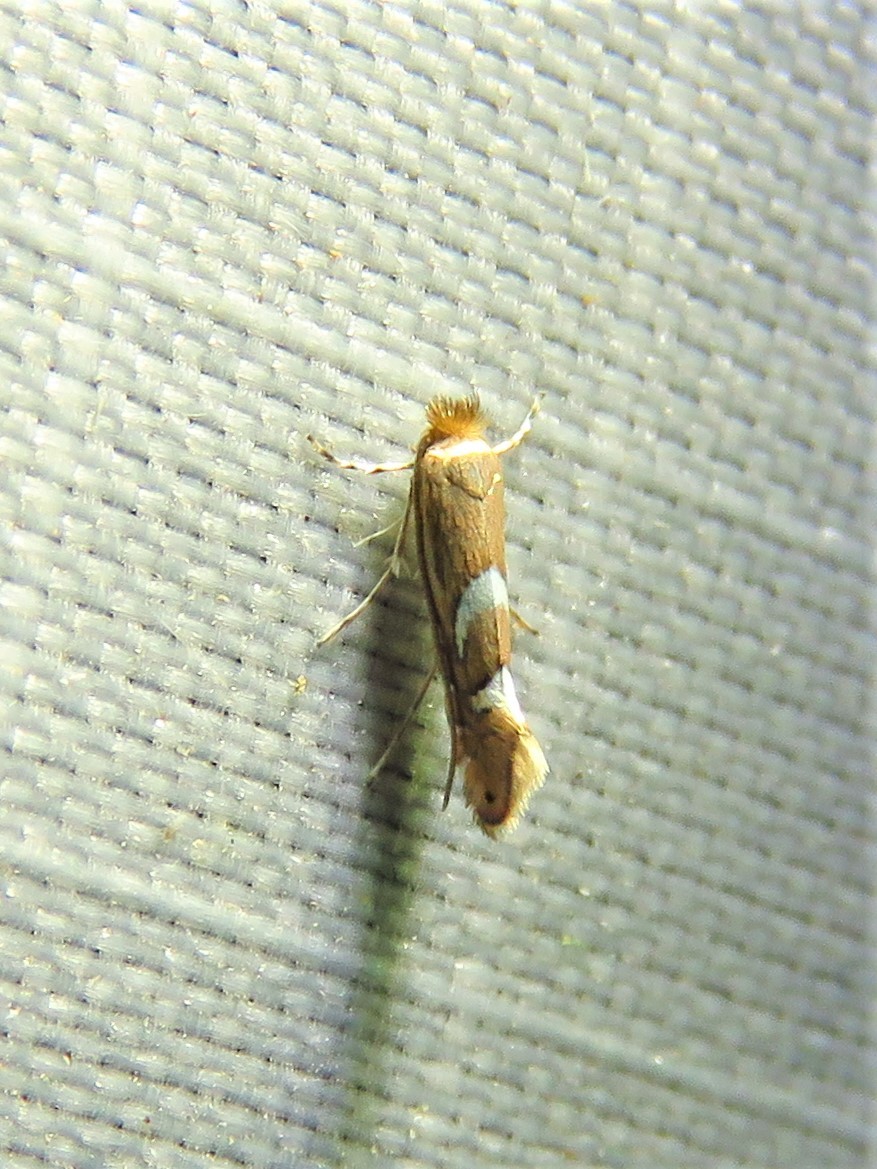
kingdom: Animalia
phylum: Arthropoda
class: Insecta
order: Lepidoptera
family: Gracillariidae
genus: Phyllonorycter
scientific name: Phyllonorycter aeriferella
